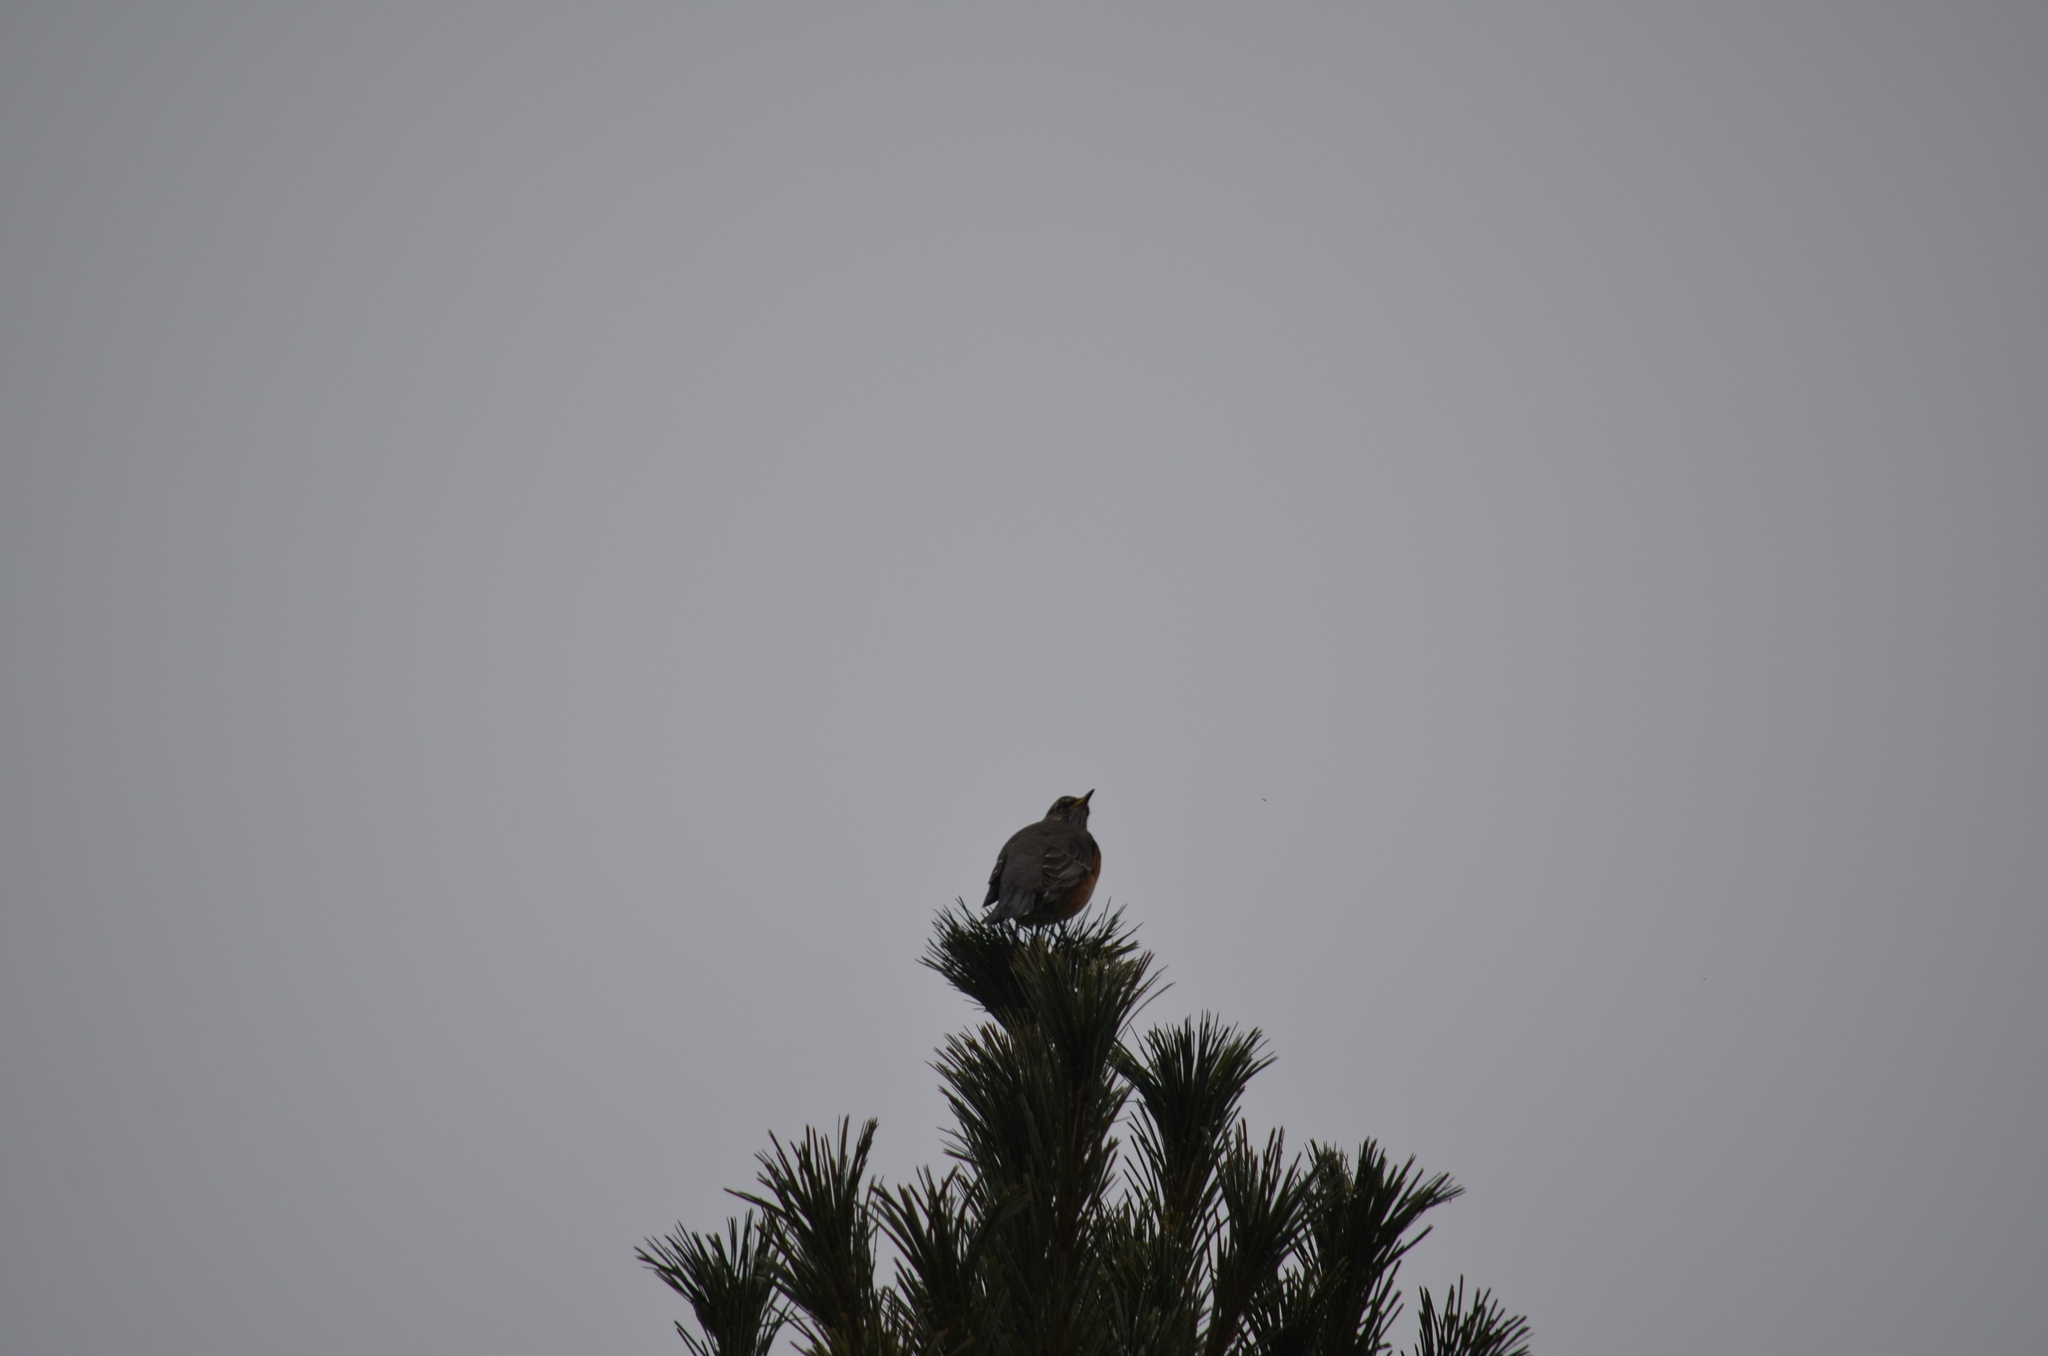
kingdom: Animalia
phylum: Chordata
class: Aves
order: Passeriformes
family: Turdidae
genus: Turdus
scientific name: Turdus migratorius
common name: American robin
